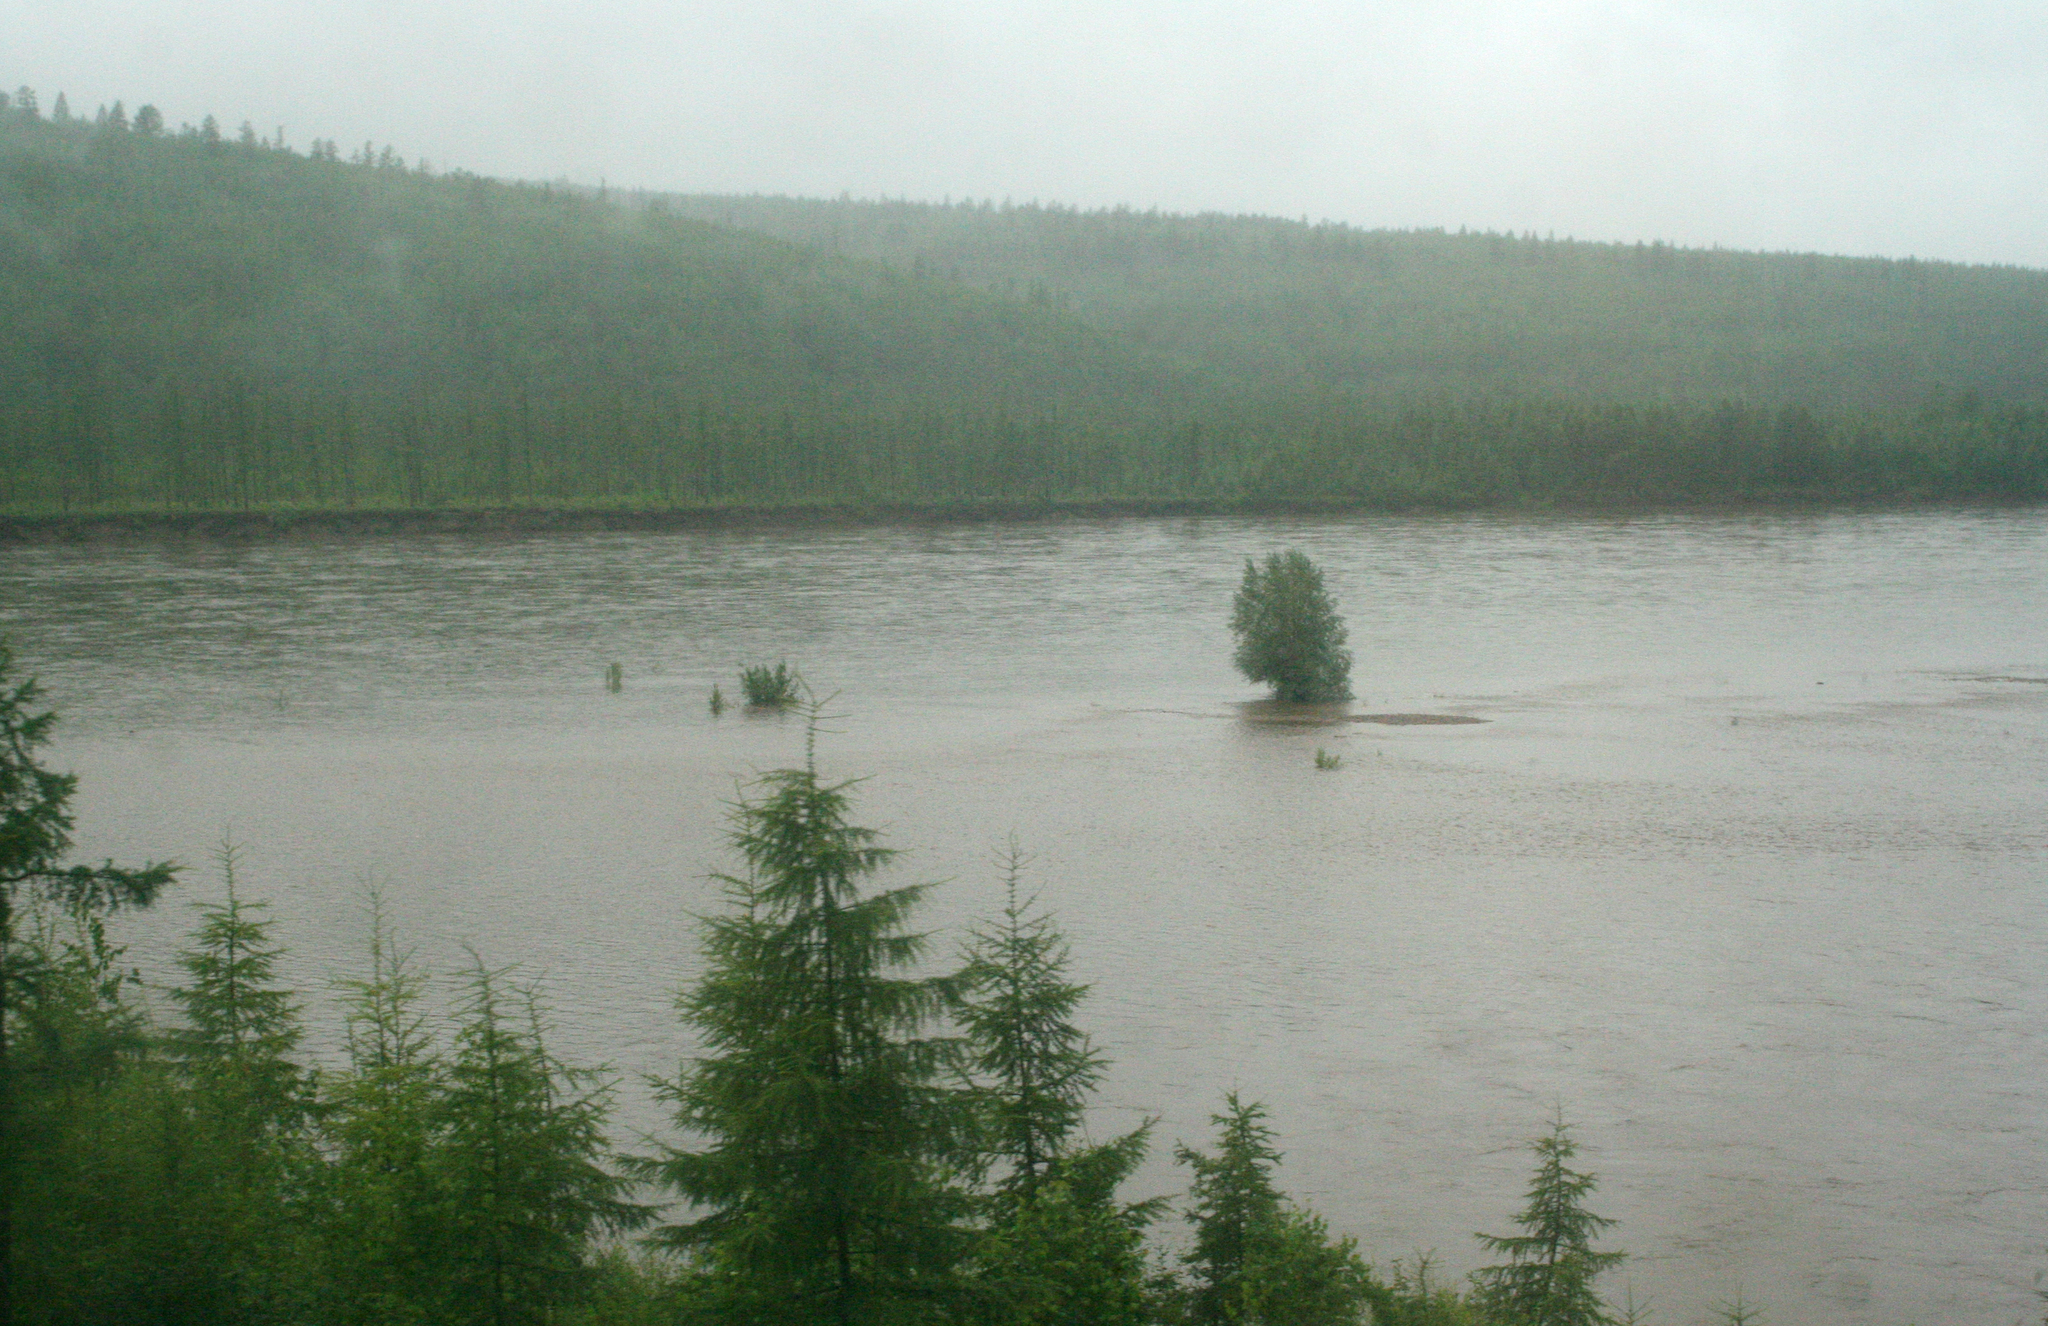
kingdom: Plantae
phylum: Tracheophyta
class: Pinopsida
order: Pinales
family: Pinaceae
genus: Larix
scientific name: Larix gmelinii
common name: Dahurian larch
